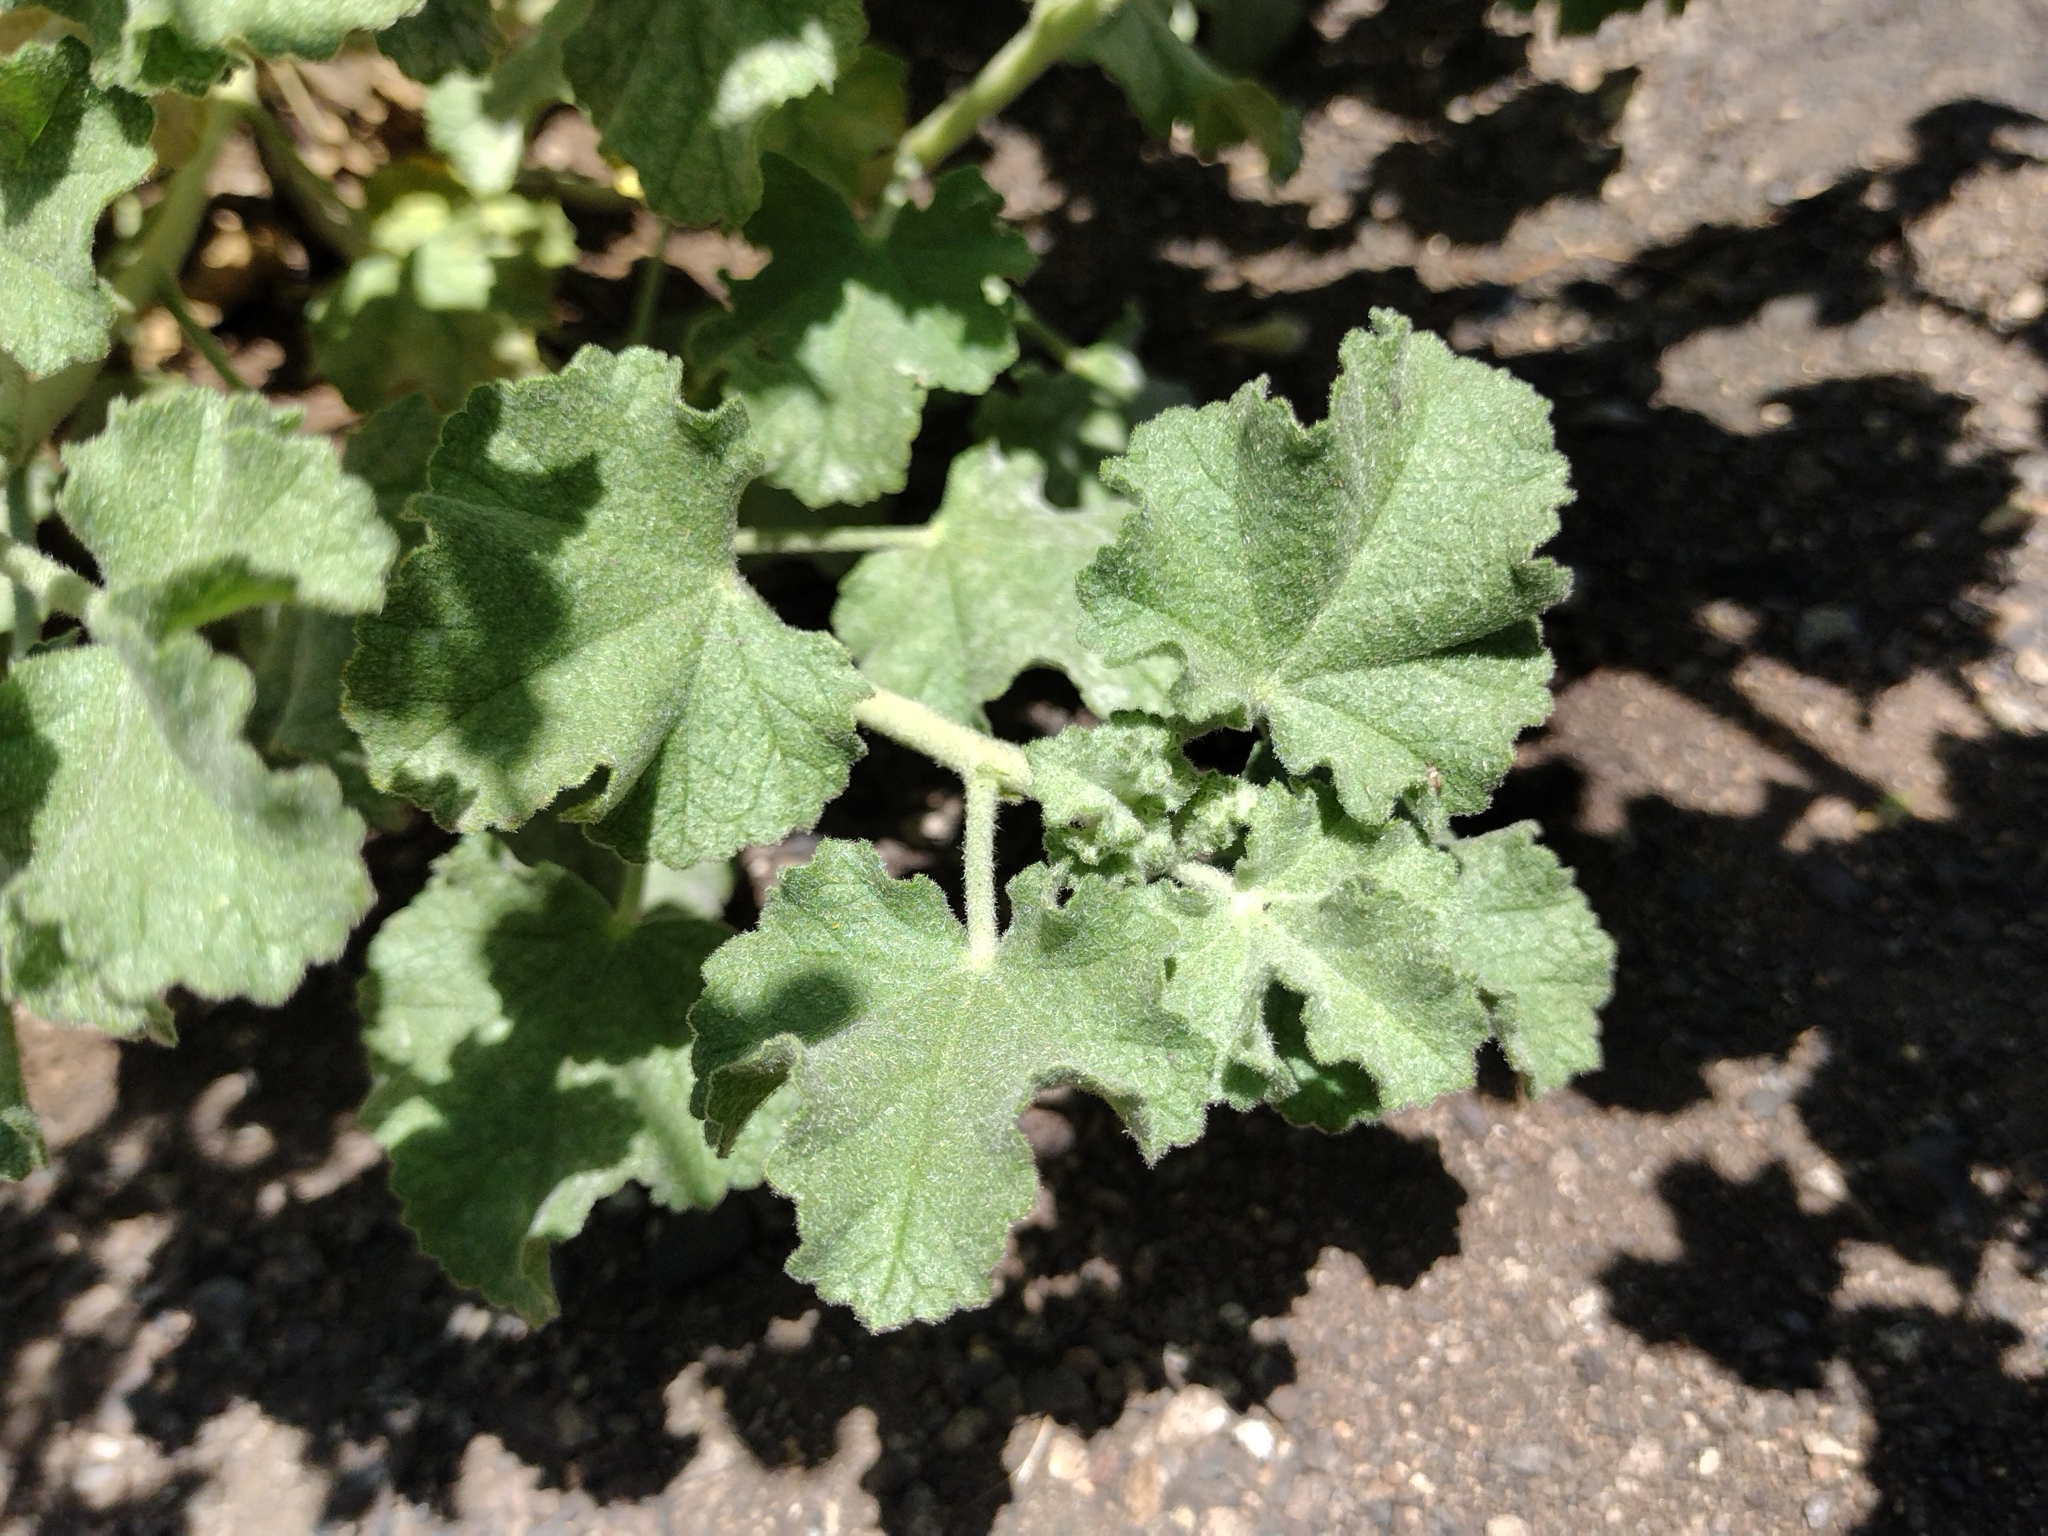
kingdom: Plantae
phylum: Tracheophyta
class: Magnoliopsida
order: Malvales
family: Malvaceae
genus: Malacothamnus
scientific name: Malacothamnus fremontii
